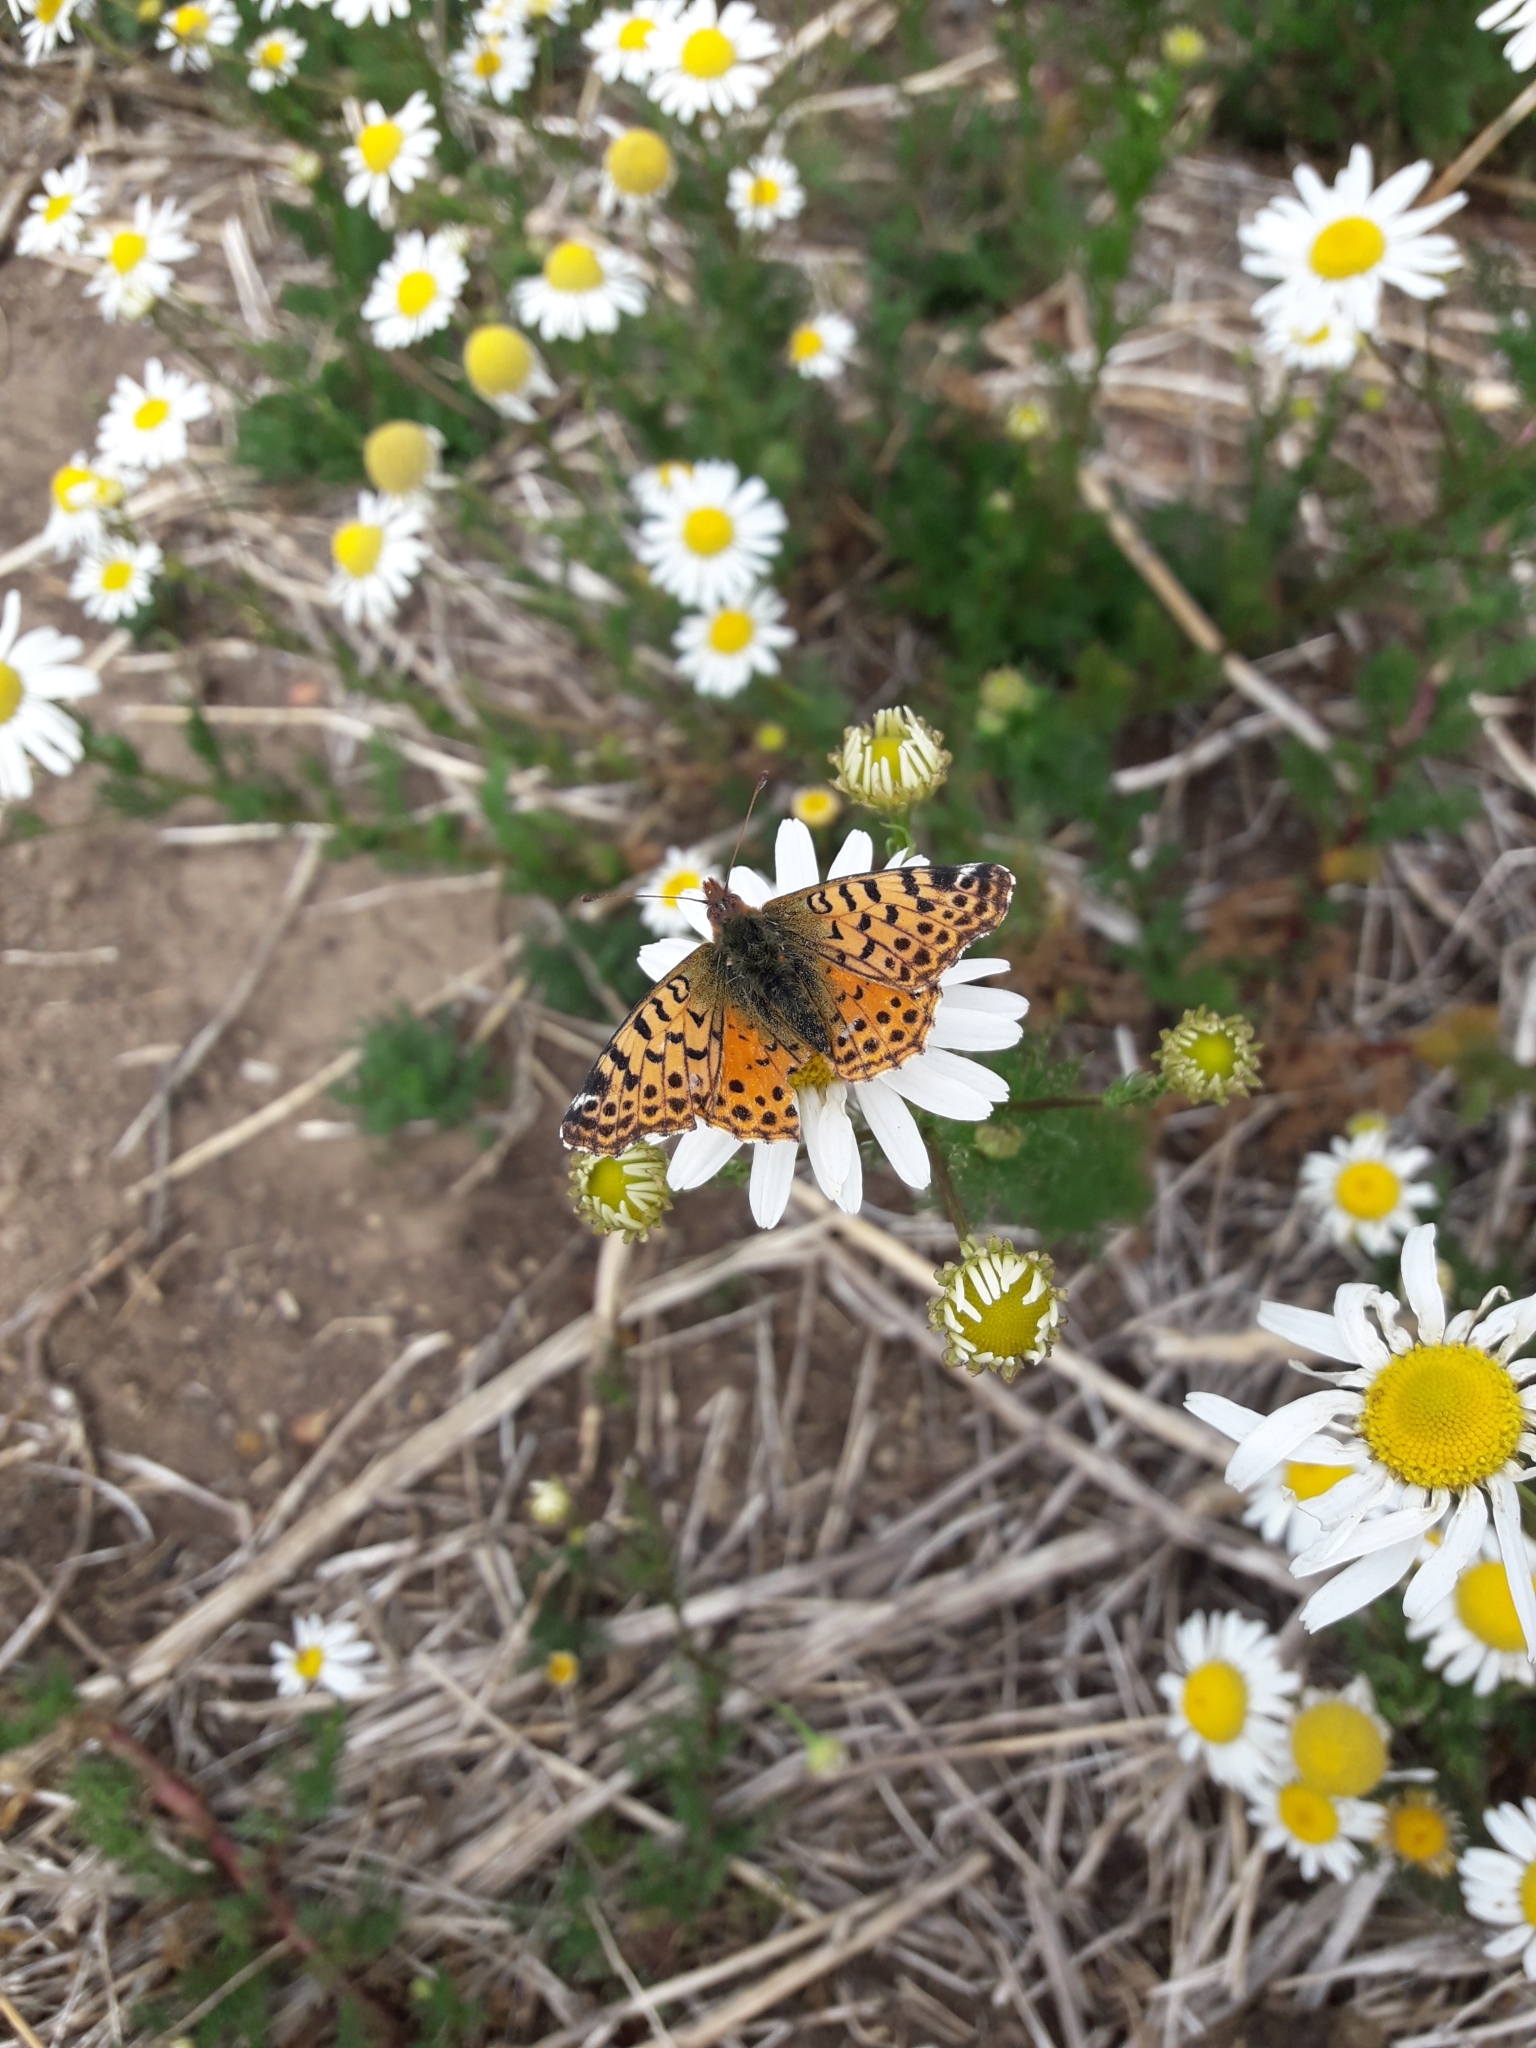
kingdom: Animalia
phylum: Arthropoda
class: Insecta
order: Lepidoptera
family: Nymphalidae
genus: Issoria
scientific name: Issoria Yramea cytheris
